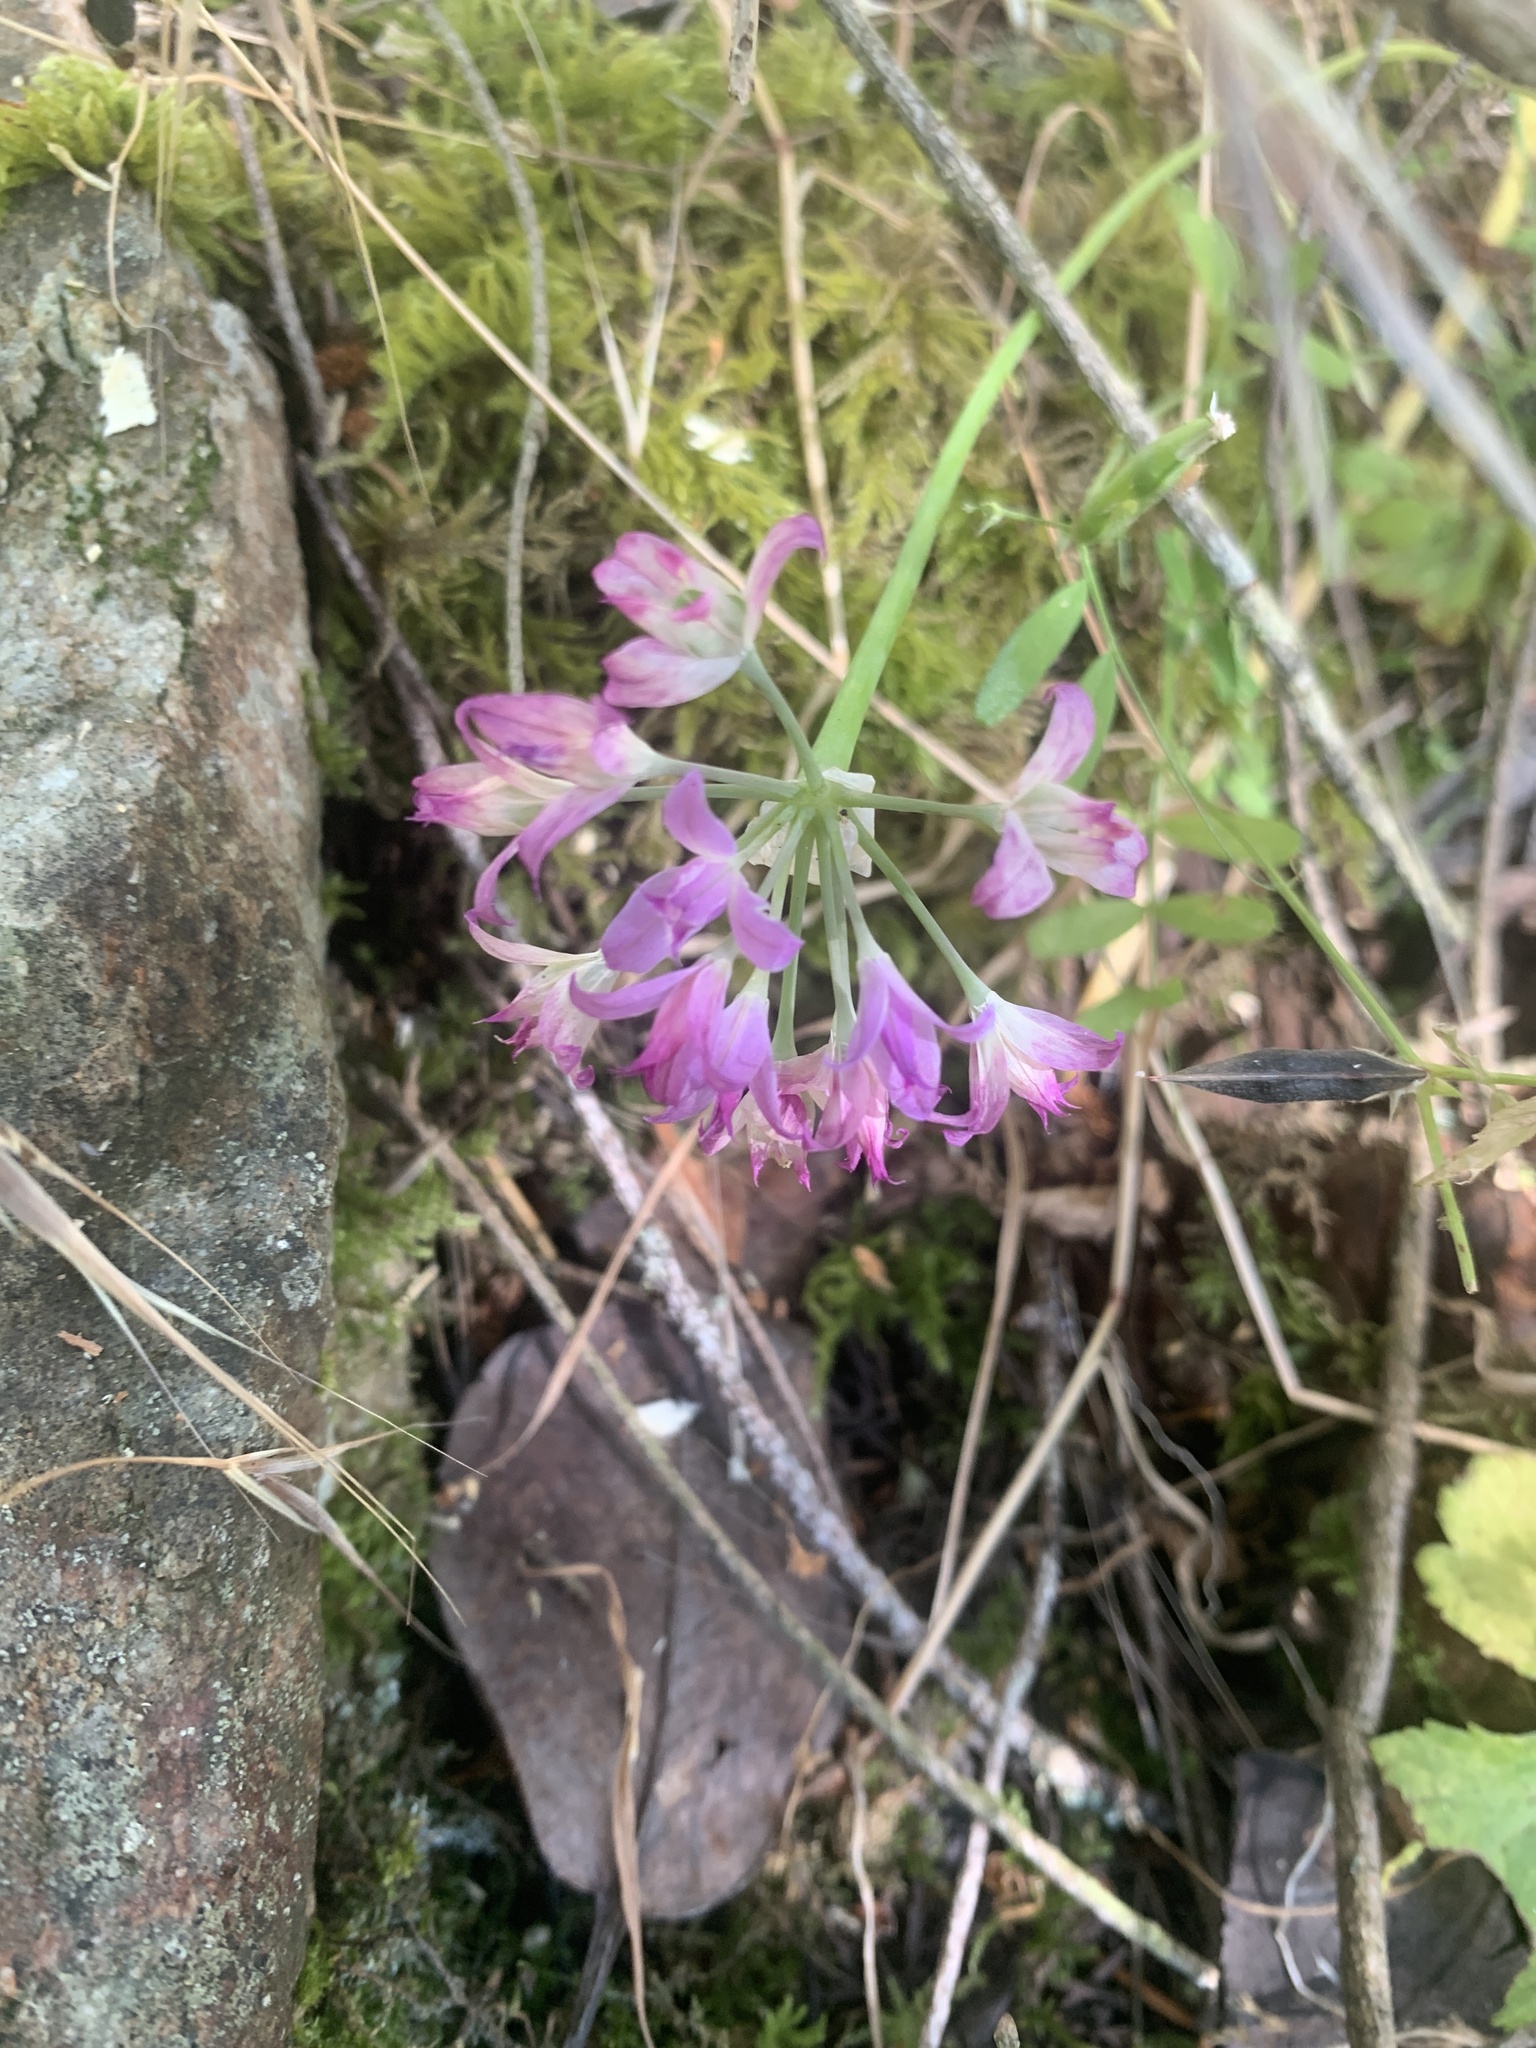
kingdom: Plantae
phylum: Tracheophyta
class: Liliopsida
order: Asparagales
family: Amaryllidaceae
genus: Allium
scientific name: Allium acuminatum
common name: Hooker's onion
